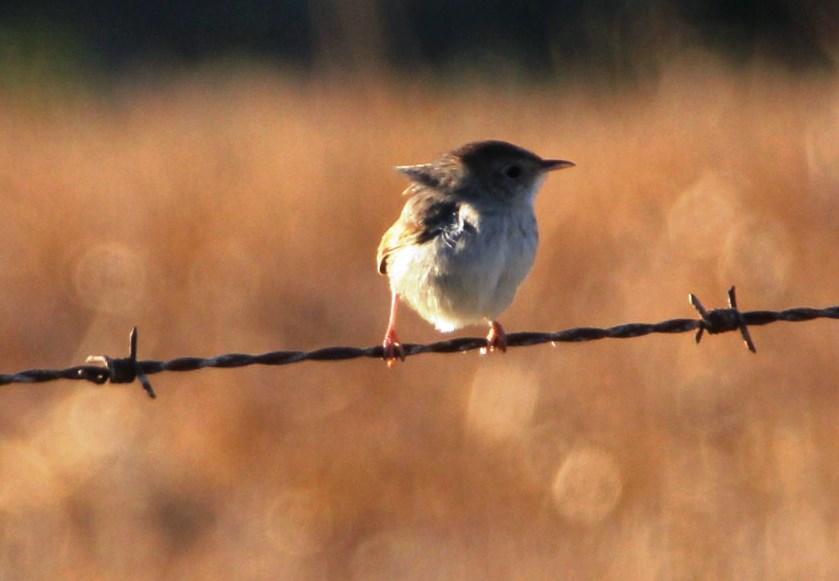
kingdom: Animalia
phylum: Chordata
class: Aves
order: Passeriformes
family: Cisticolidae
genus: Cisticola
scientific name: Cisticola subruficapilla
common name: Grey-backed cisticola
